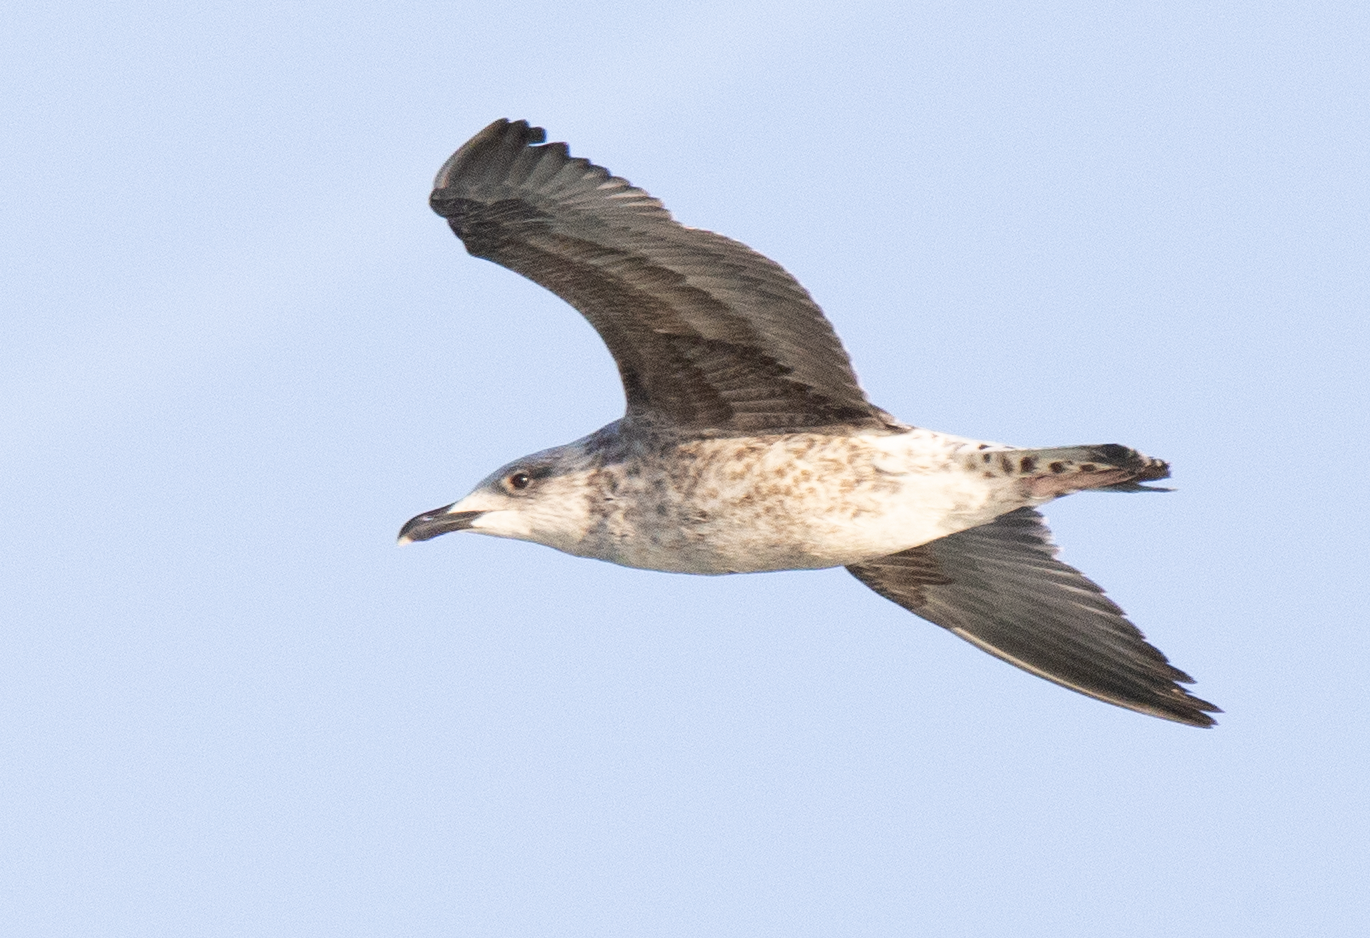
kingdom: Animalia
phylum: Chordata
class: Aves
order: Charadriiformes
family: Laridae
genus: Larus
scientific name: Larus michahellis
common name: Yellow-legged gull
